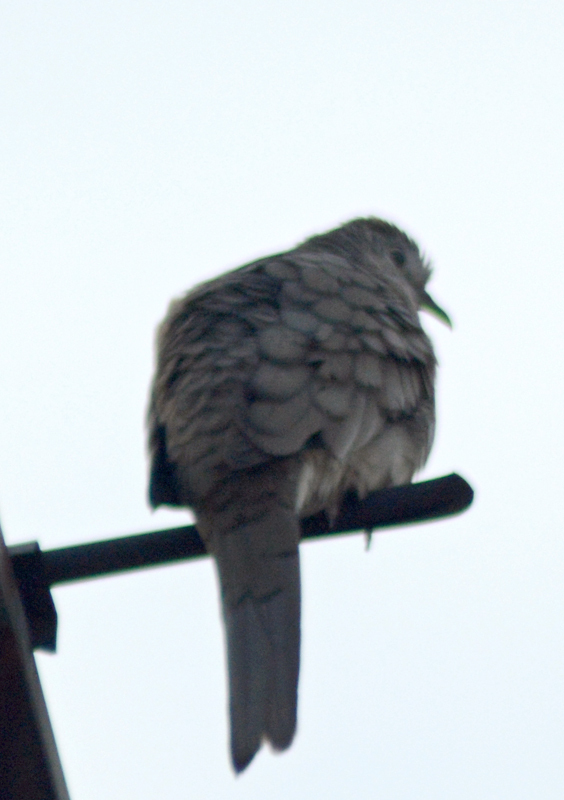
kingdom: Animalia
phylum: Chordata
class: Aves
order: Columbiformes
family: Columbidae
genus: Columbina
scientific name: Columbina inca
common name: Inca dove
